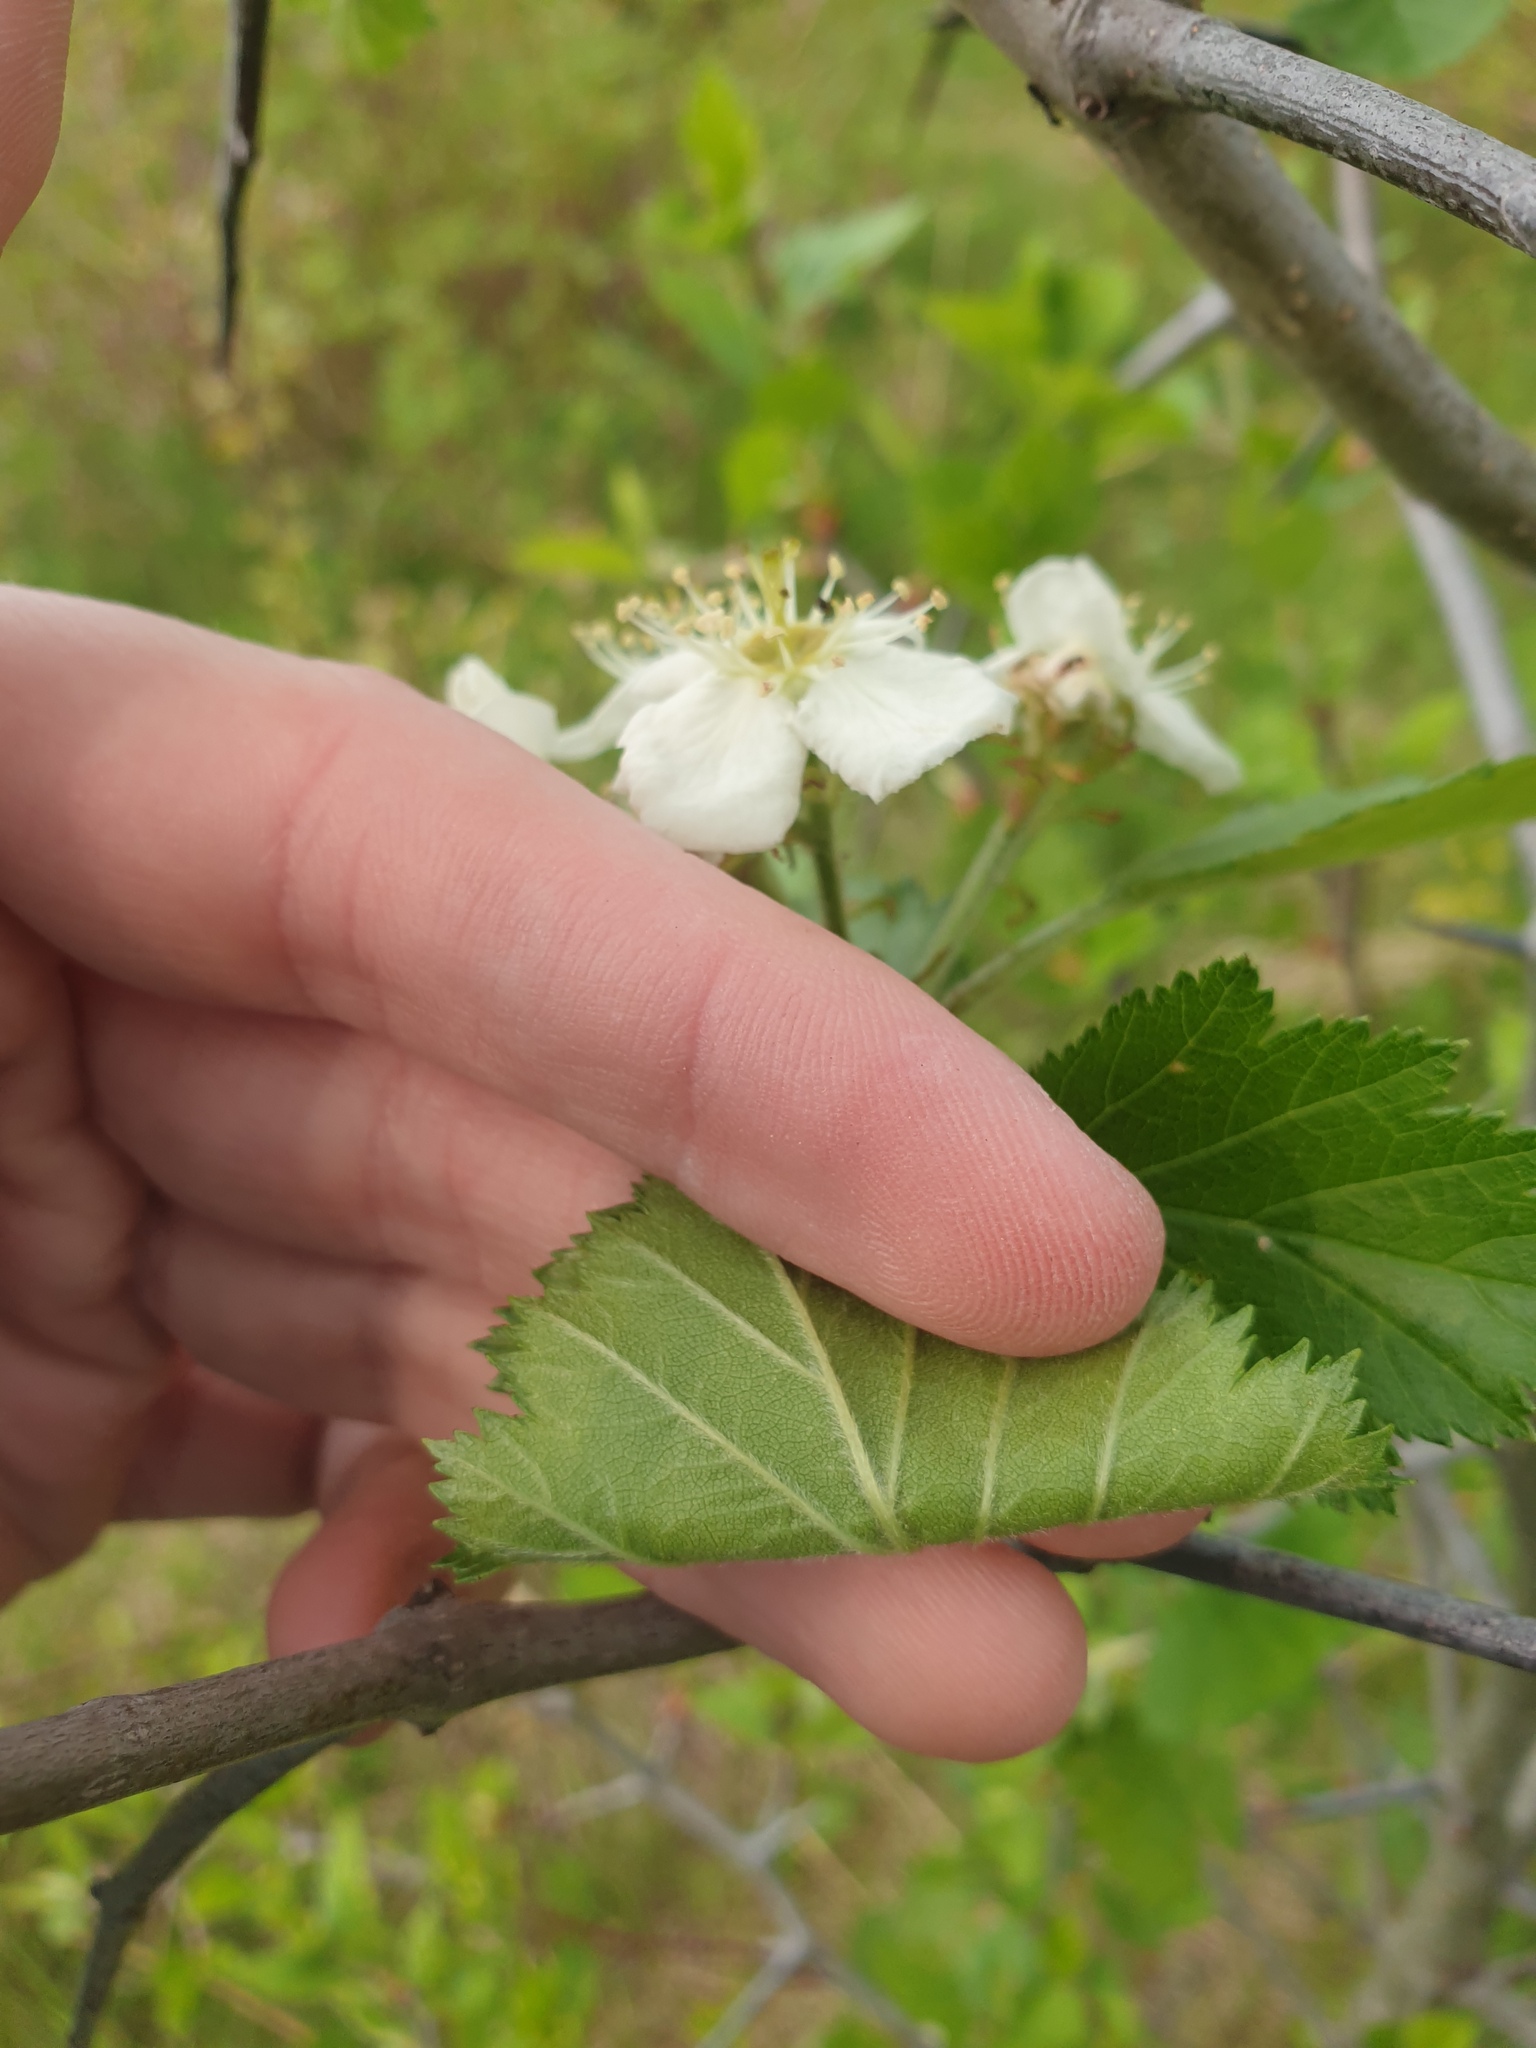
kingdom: Plantae
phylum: Tracheophyta
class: Magnoliopsida
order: Rosales
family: Rosaceae
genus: Crataegus
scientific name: Crataegus submollis
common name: Hairy cockspurthorn
